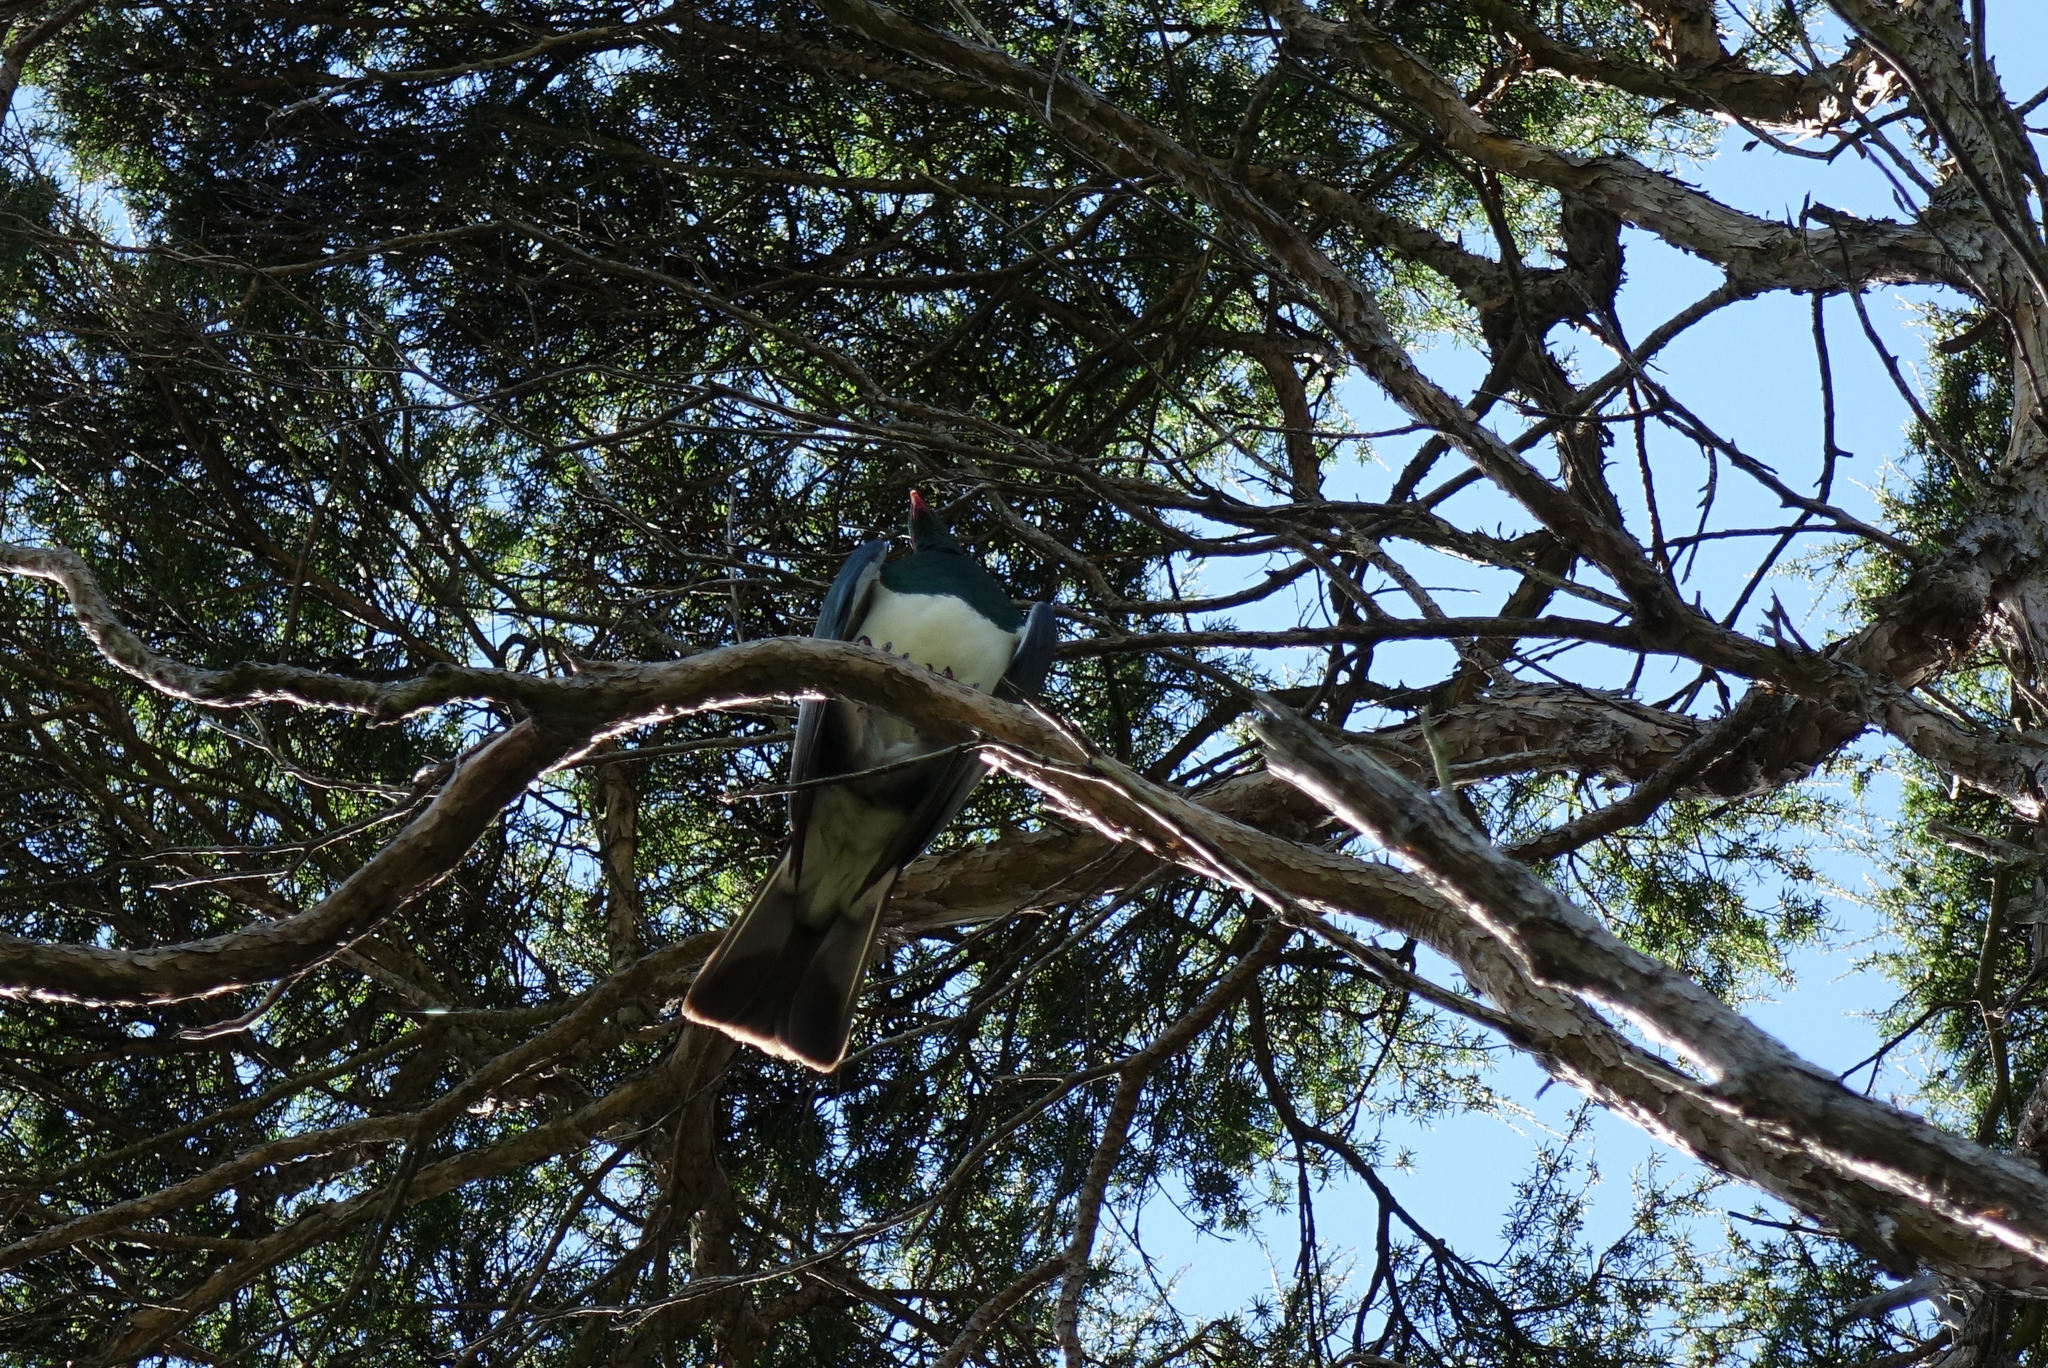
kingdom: Animalia
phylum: Chordata
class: Aves
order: Columbiformes
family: Columbidae
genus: Hemiphaga
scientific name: Hemiphaga novaeseelandiae
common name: New zealand pigeon
